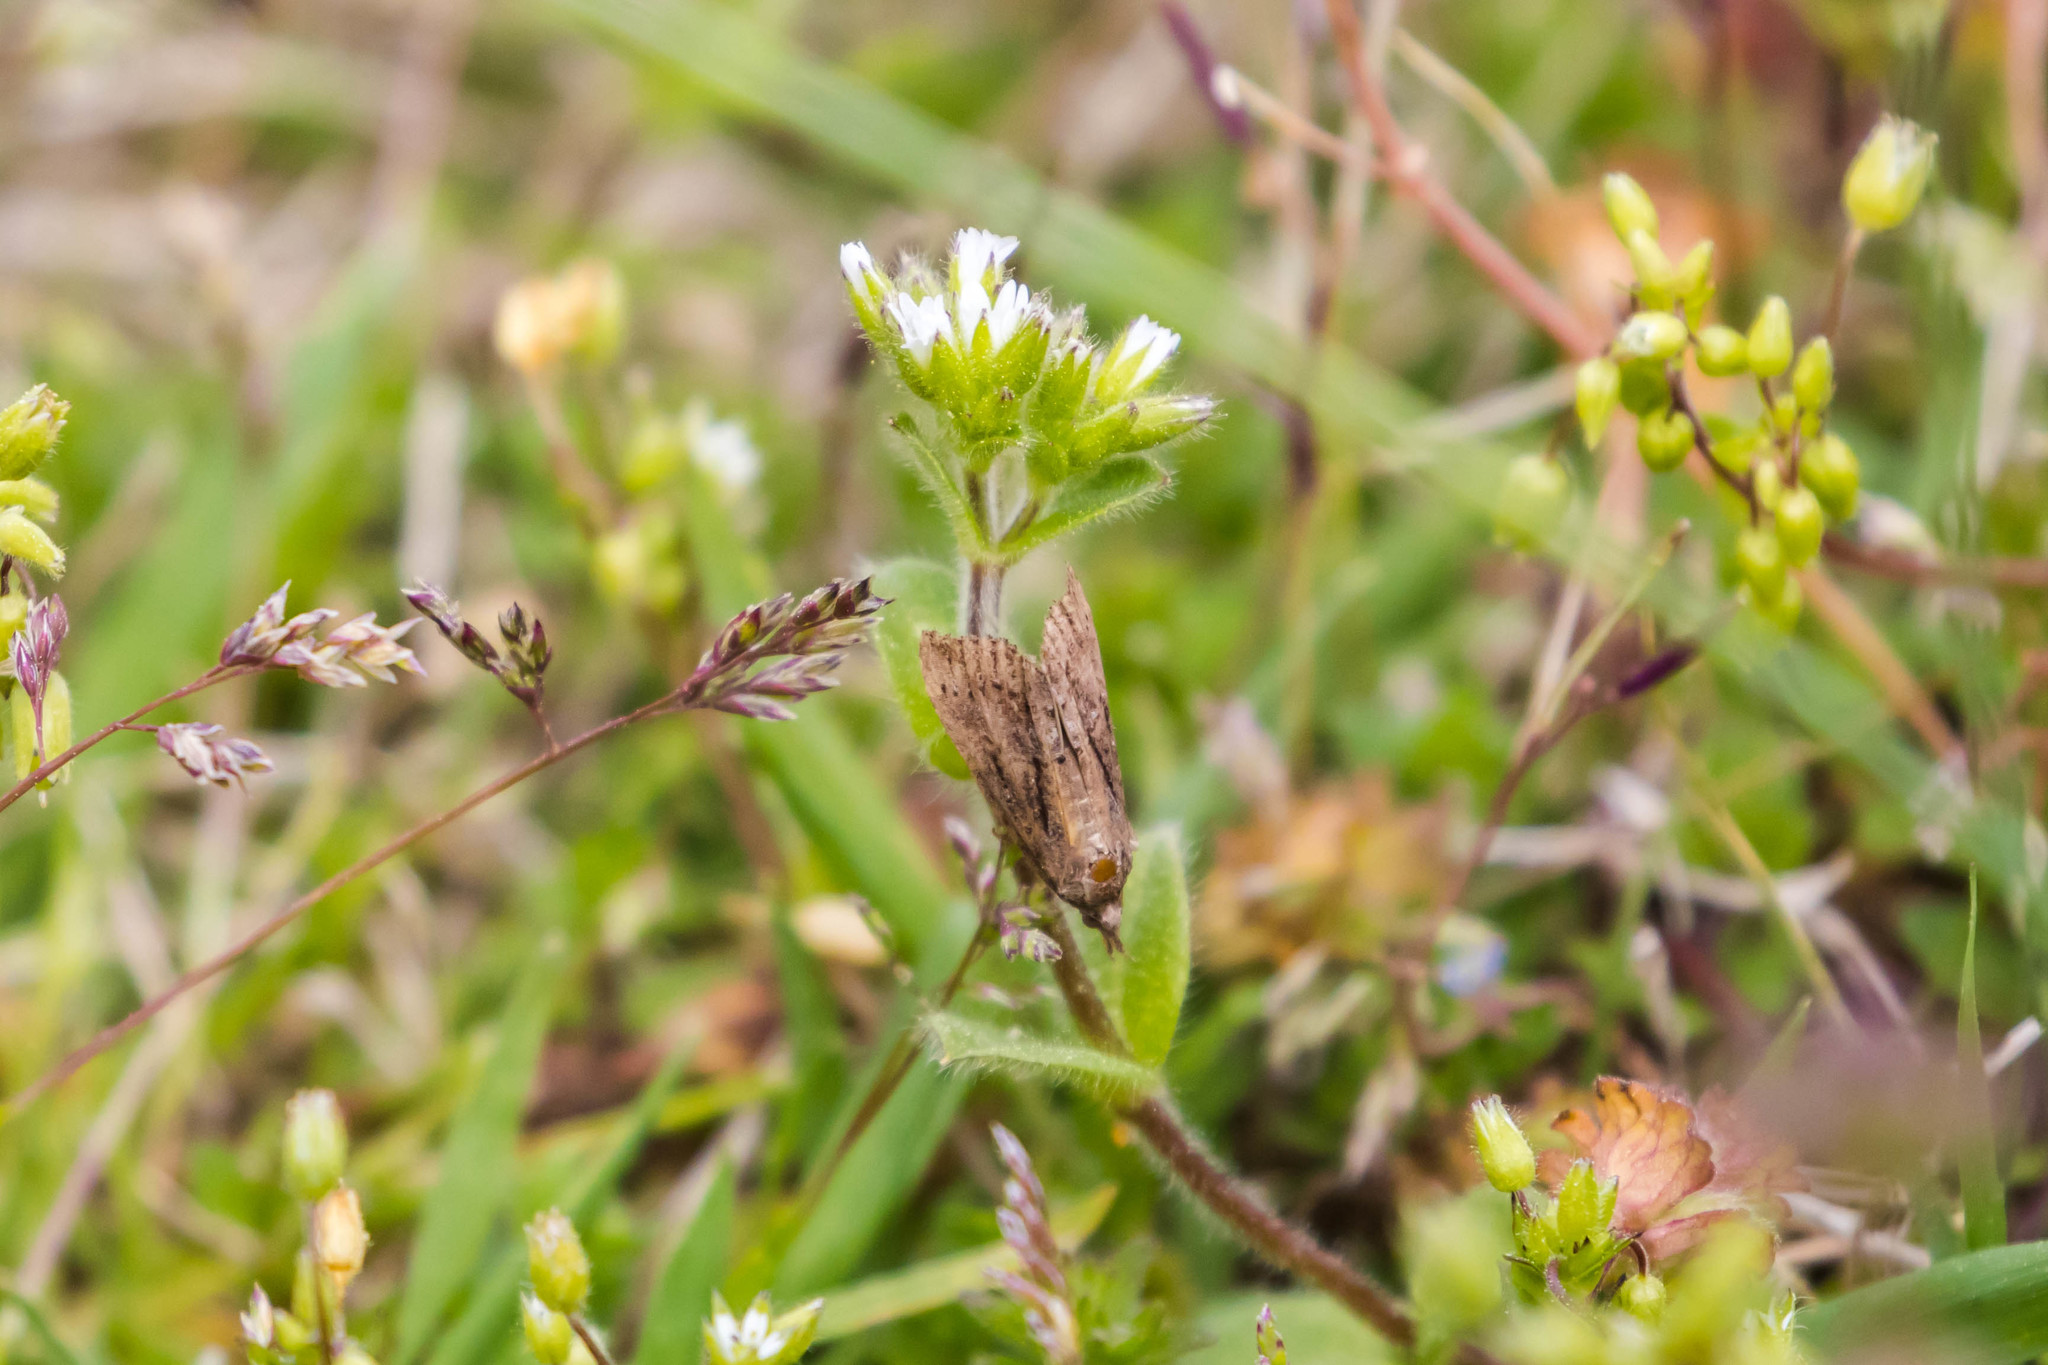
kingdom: Animalia
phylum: Arthropoda
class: Insecta
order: Lepidoptera
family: Erebidae
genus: Hypena
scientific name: Hypena scabra
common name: Green cloverworm
